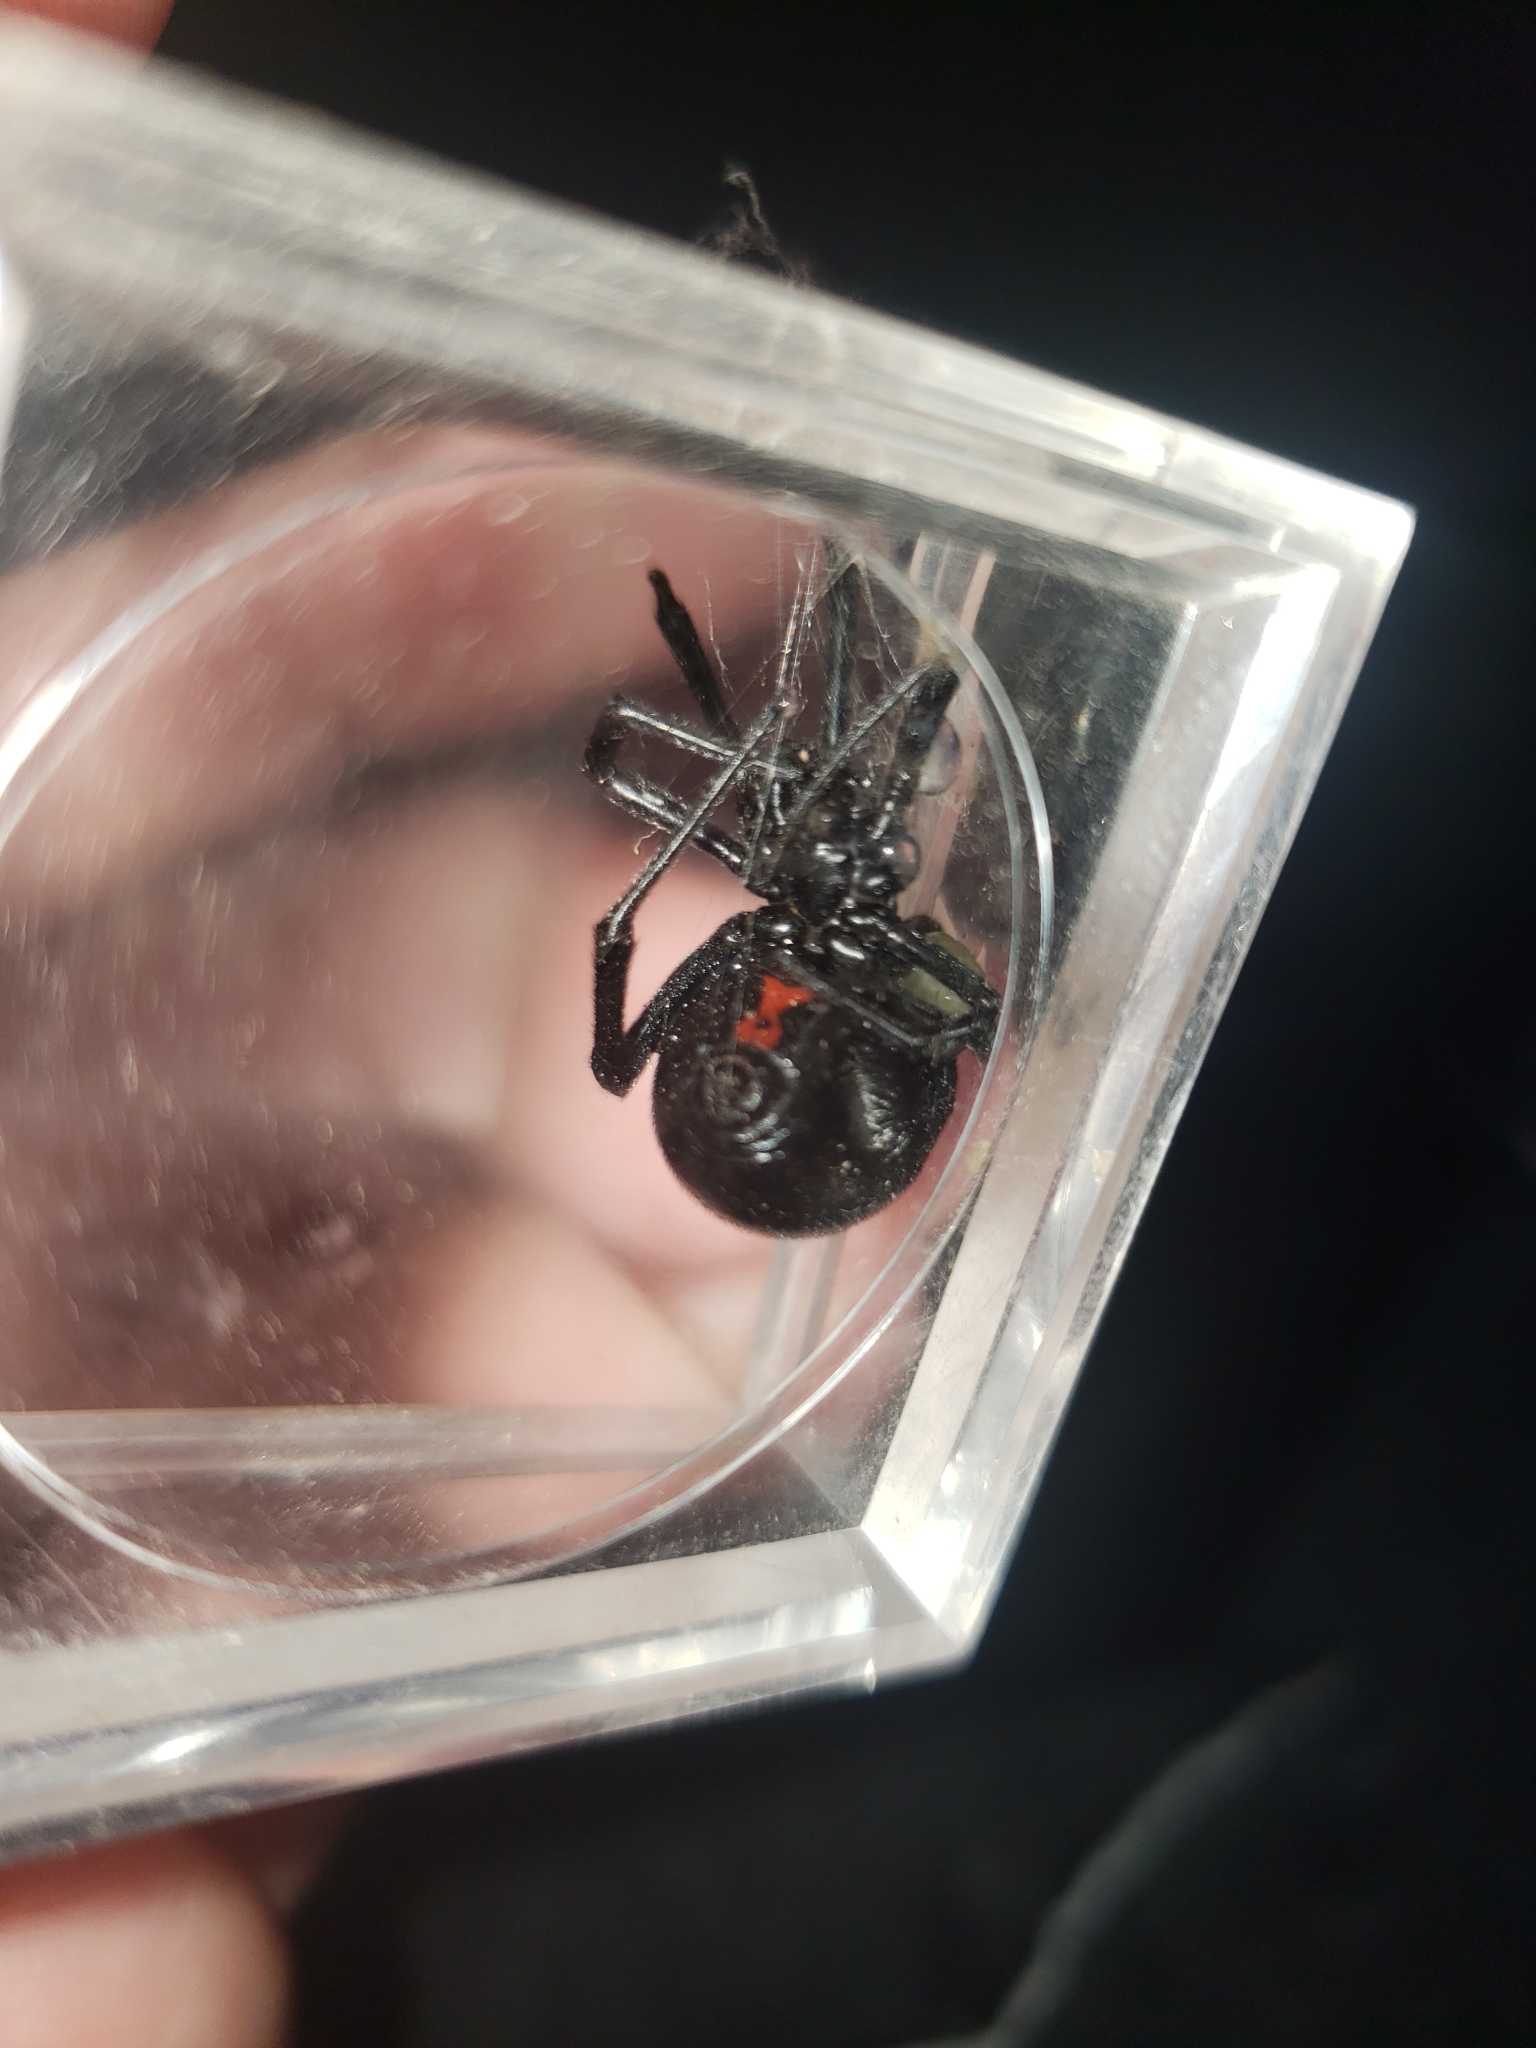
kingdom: Animalia
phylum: Arthropoda
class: Arachnida
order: Araneae
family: Theridiidae
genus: Latrodectus
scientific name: Latrodectus hesperus
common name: Western black widow
